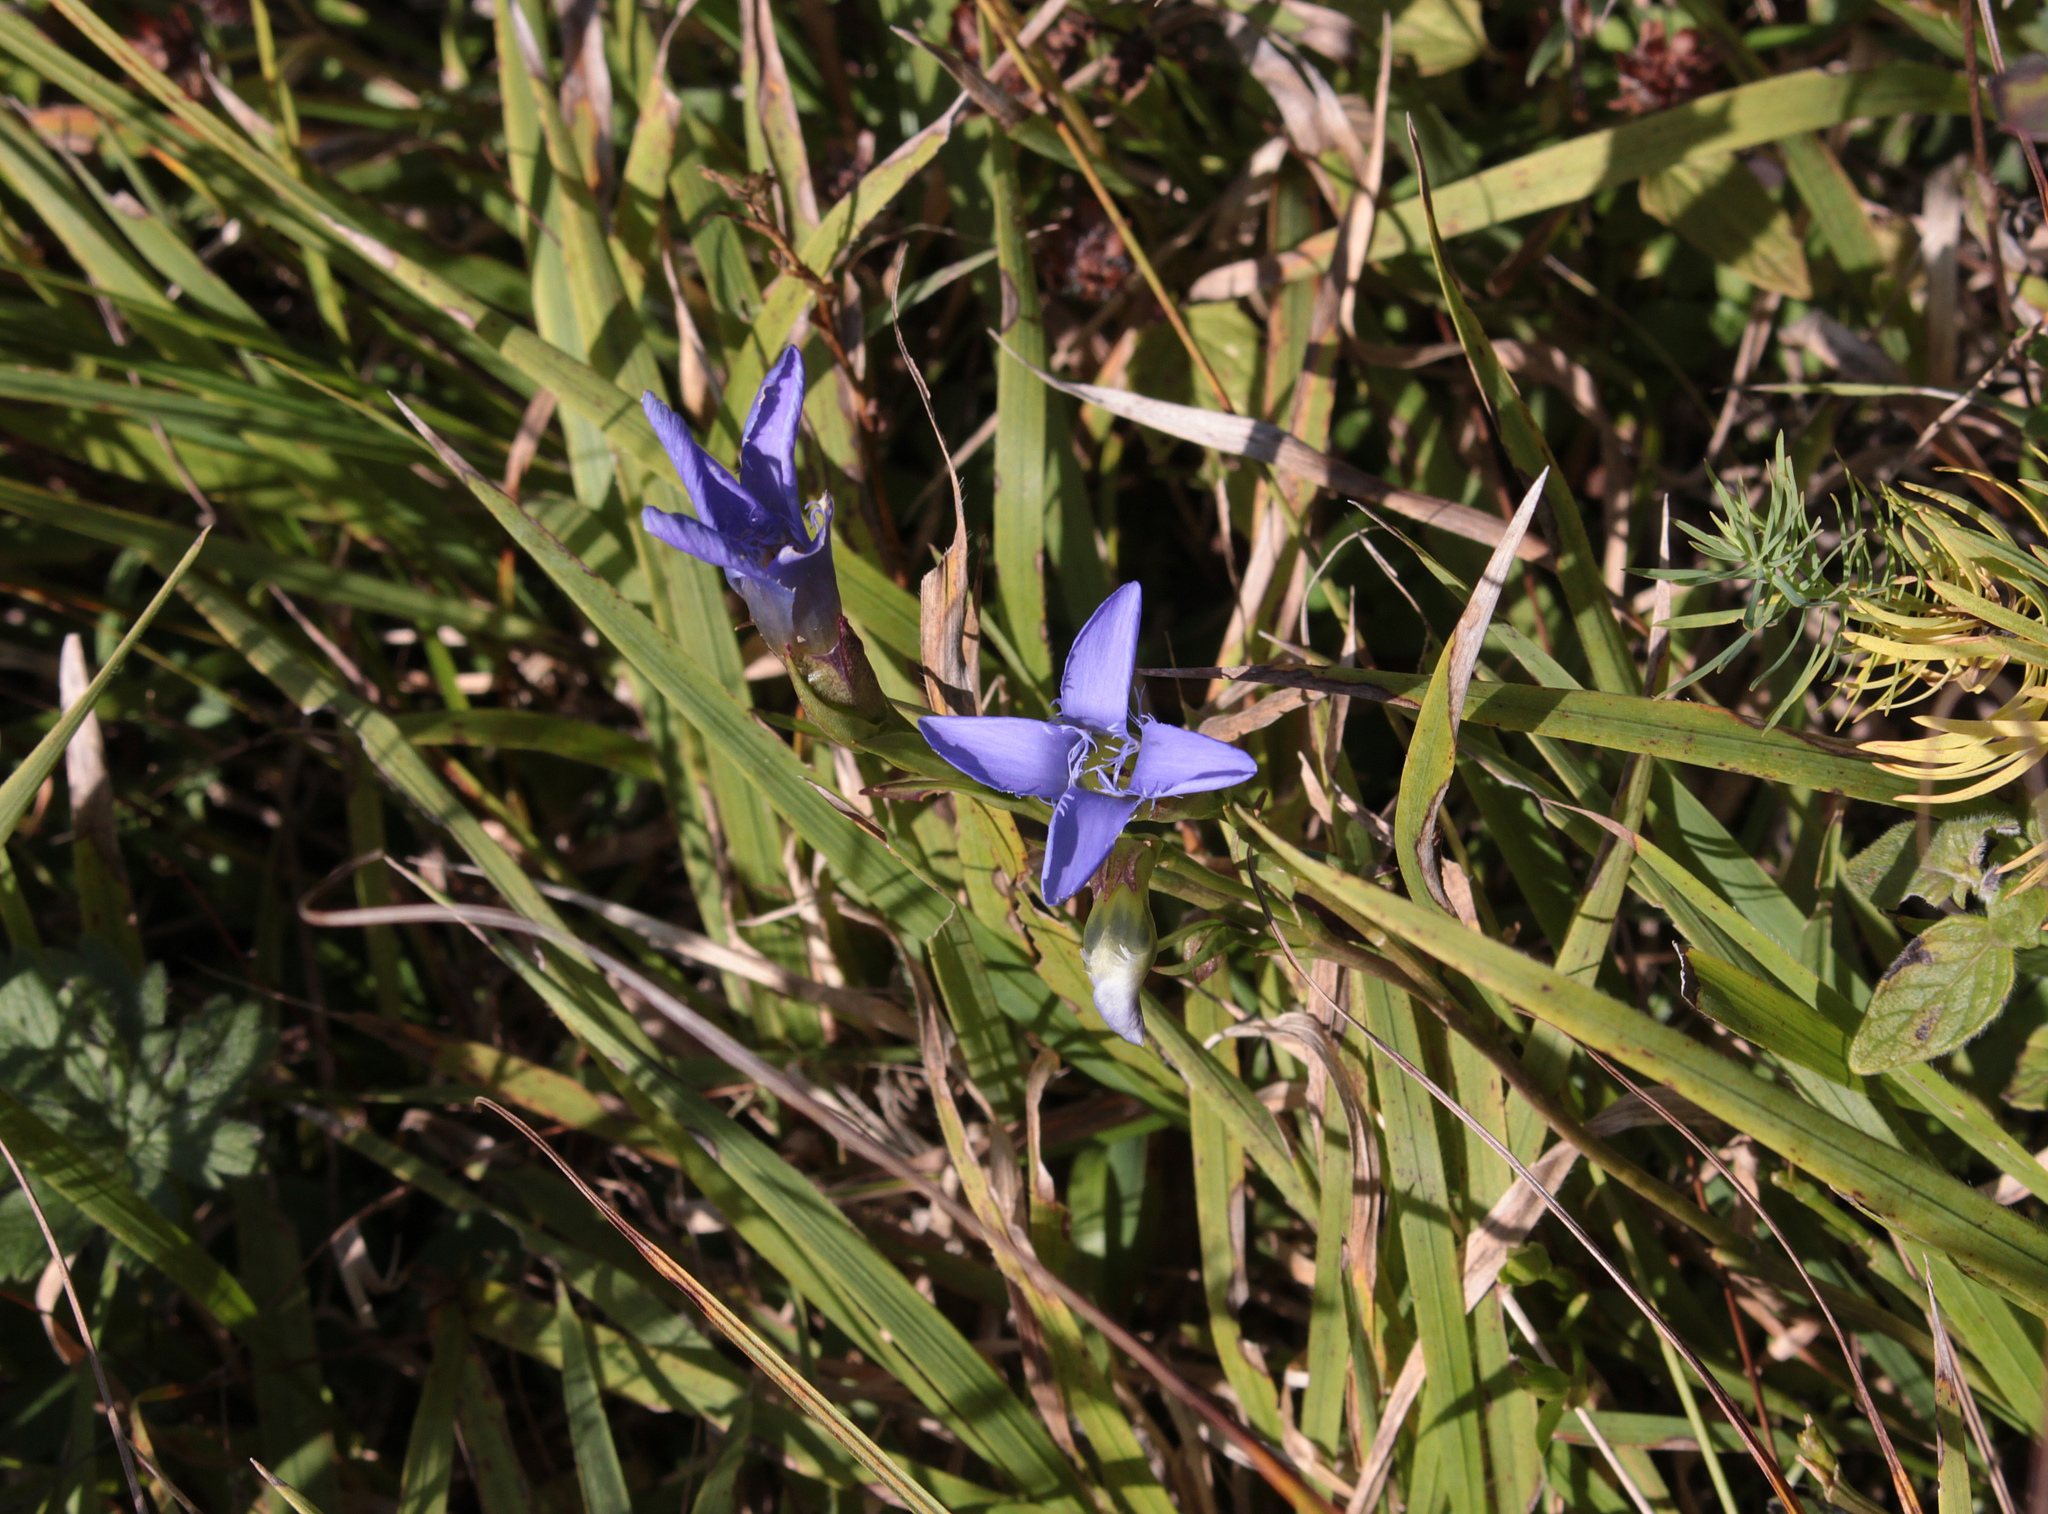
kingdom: Plantae
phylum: Tracheophyta
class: Magnoliopsida
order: Gentianales
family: Gentianaceae
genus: Gentianopsis
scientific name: Gentianopsis ciliata
